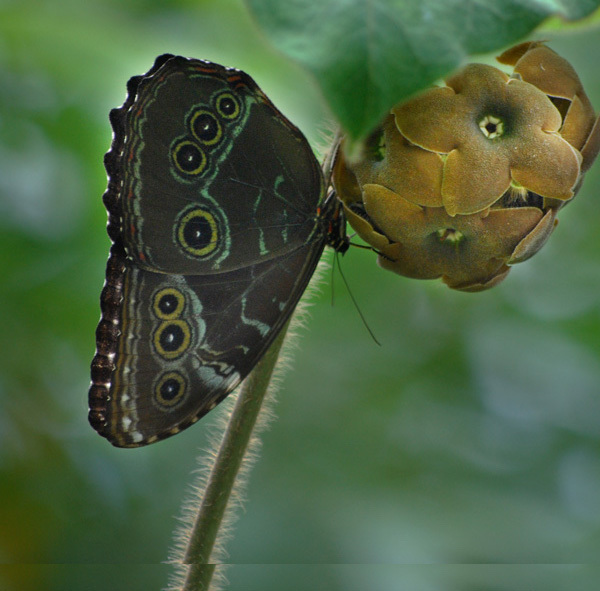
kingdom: Animalia
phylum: Arthropoda
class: Insecta
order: Lepidoptera
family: Nymphalidae
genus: Morpho
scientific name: Morpho helenor
